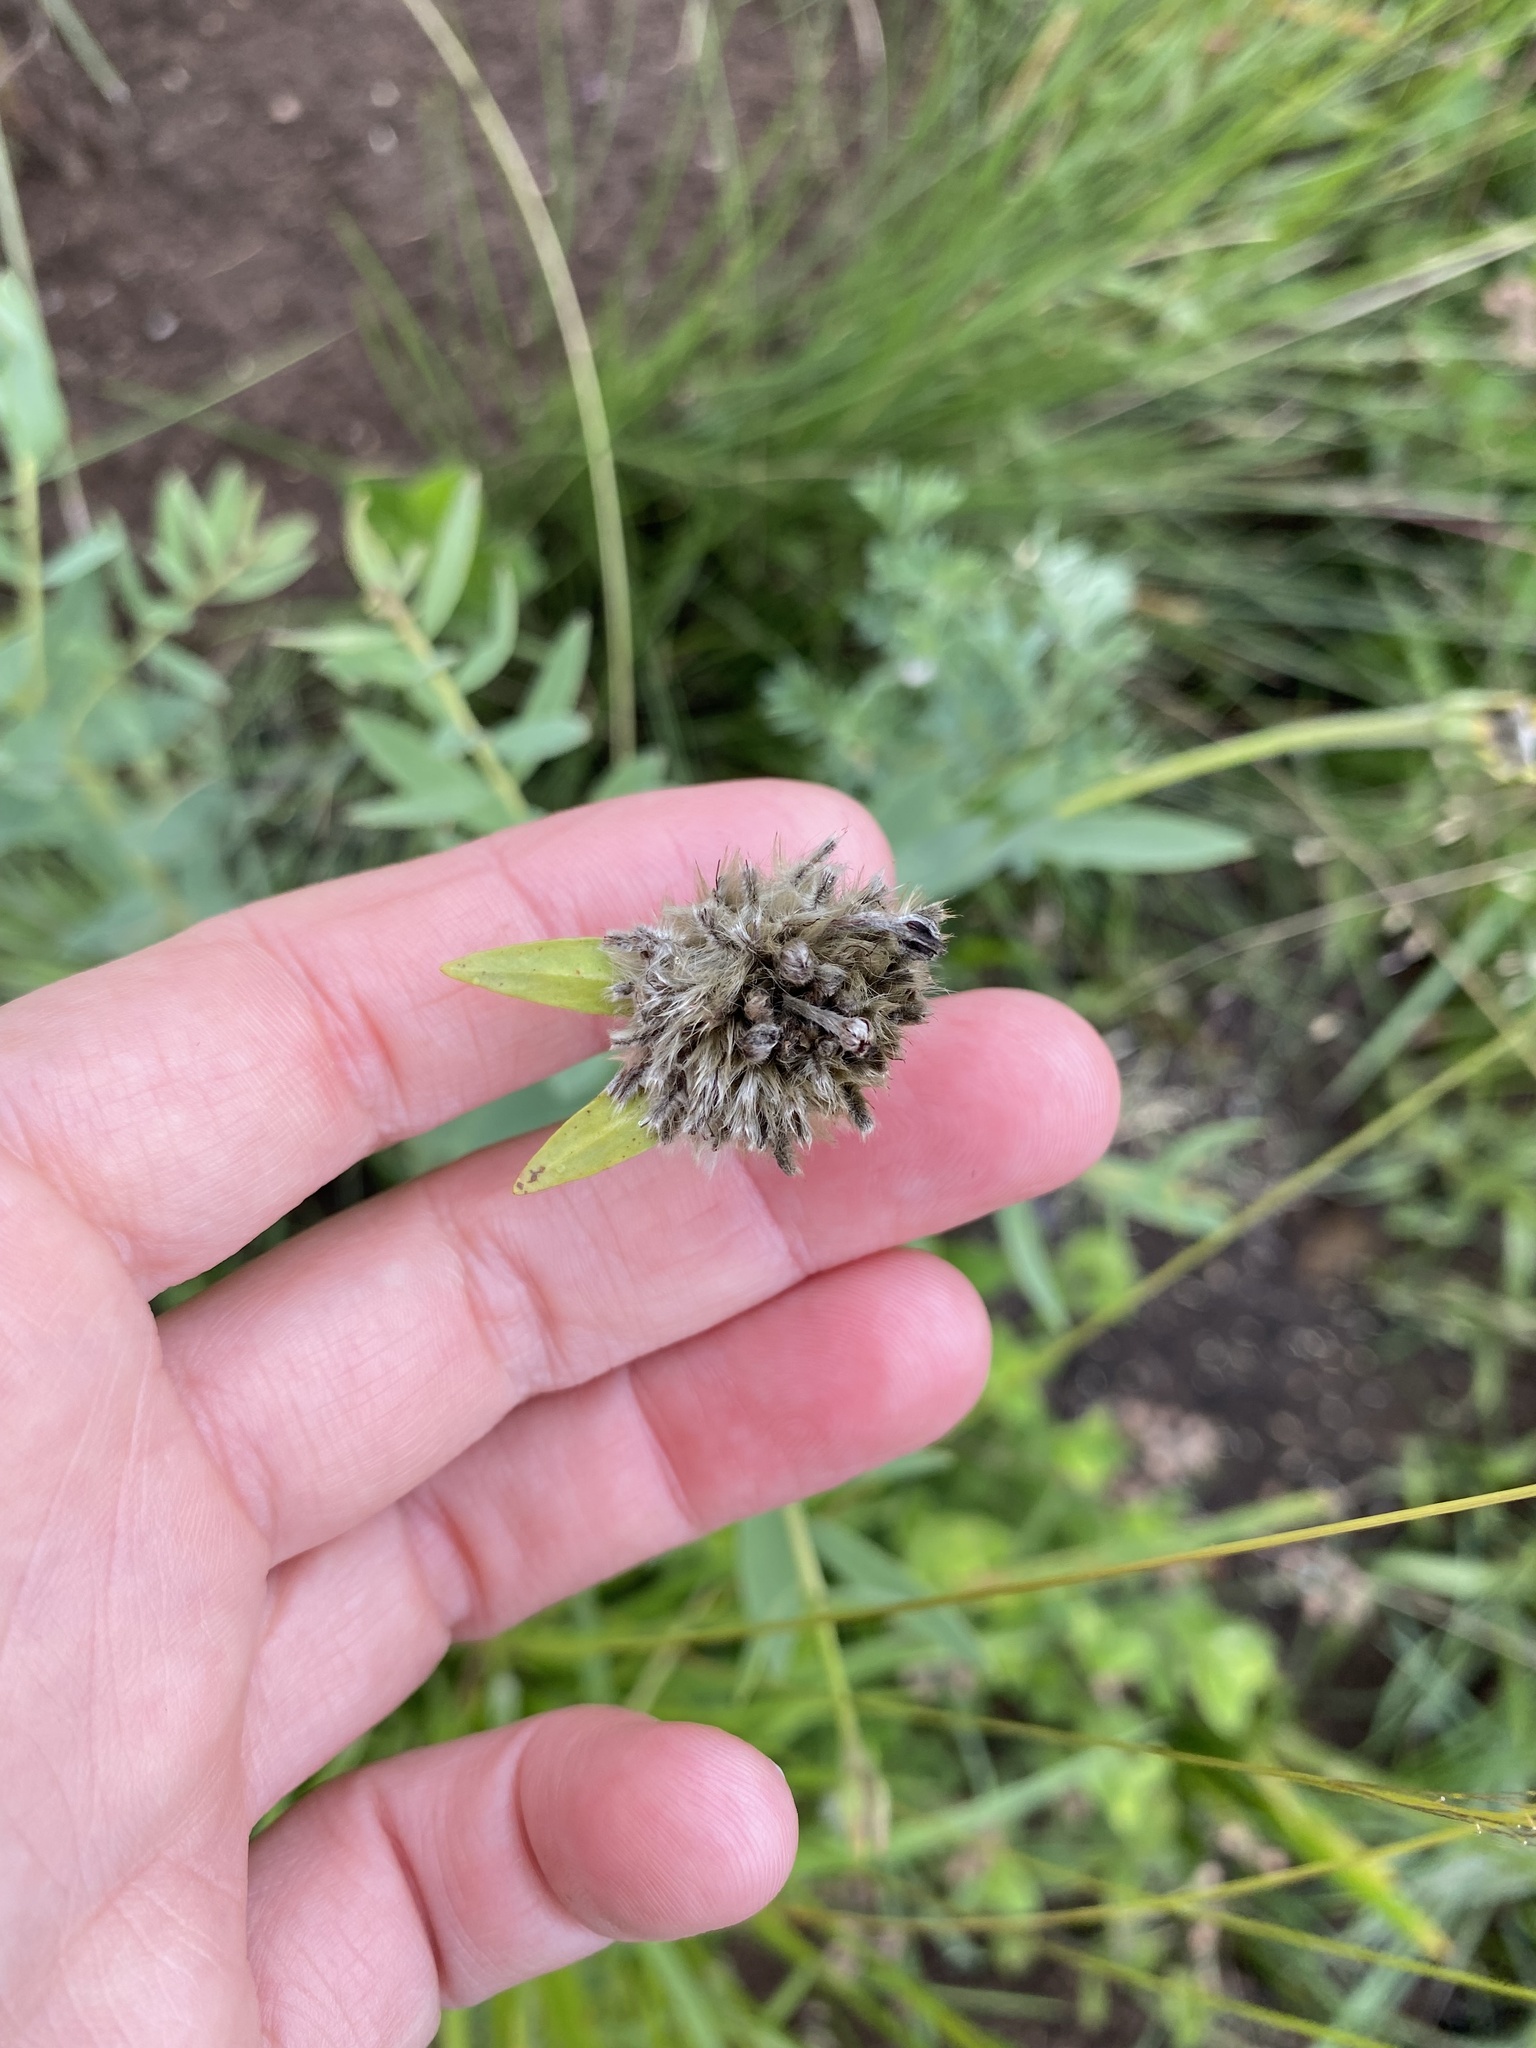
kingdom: Plantae
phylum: Tracheophyta
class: Magnoliopsida
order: Malvales
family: Thymelaeaceae
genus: Gnidia
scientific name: Gnidia kraussiana
